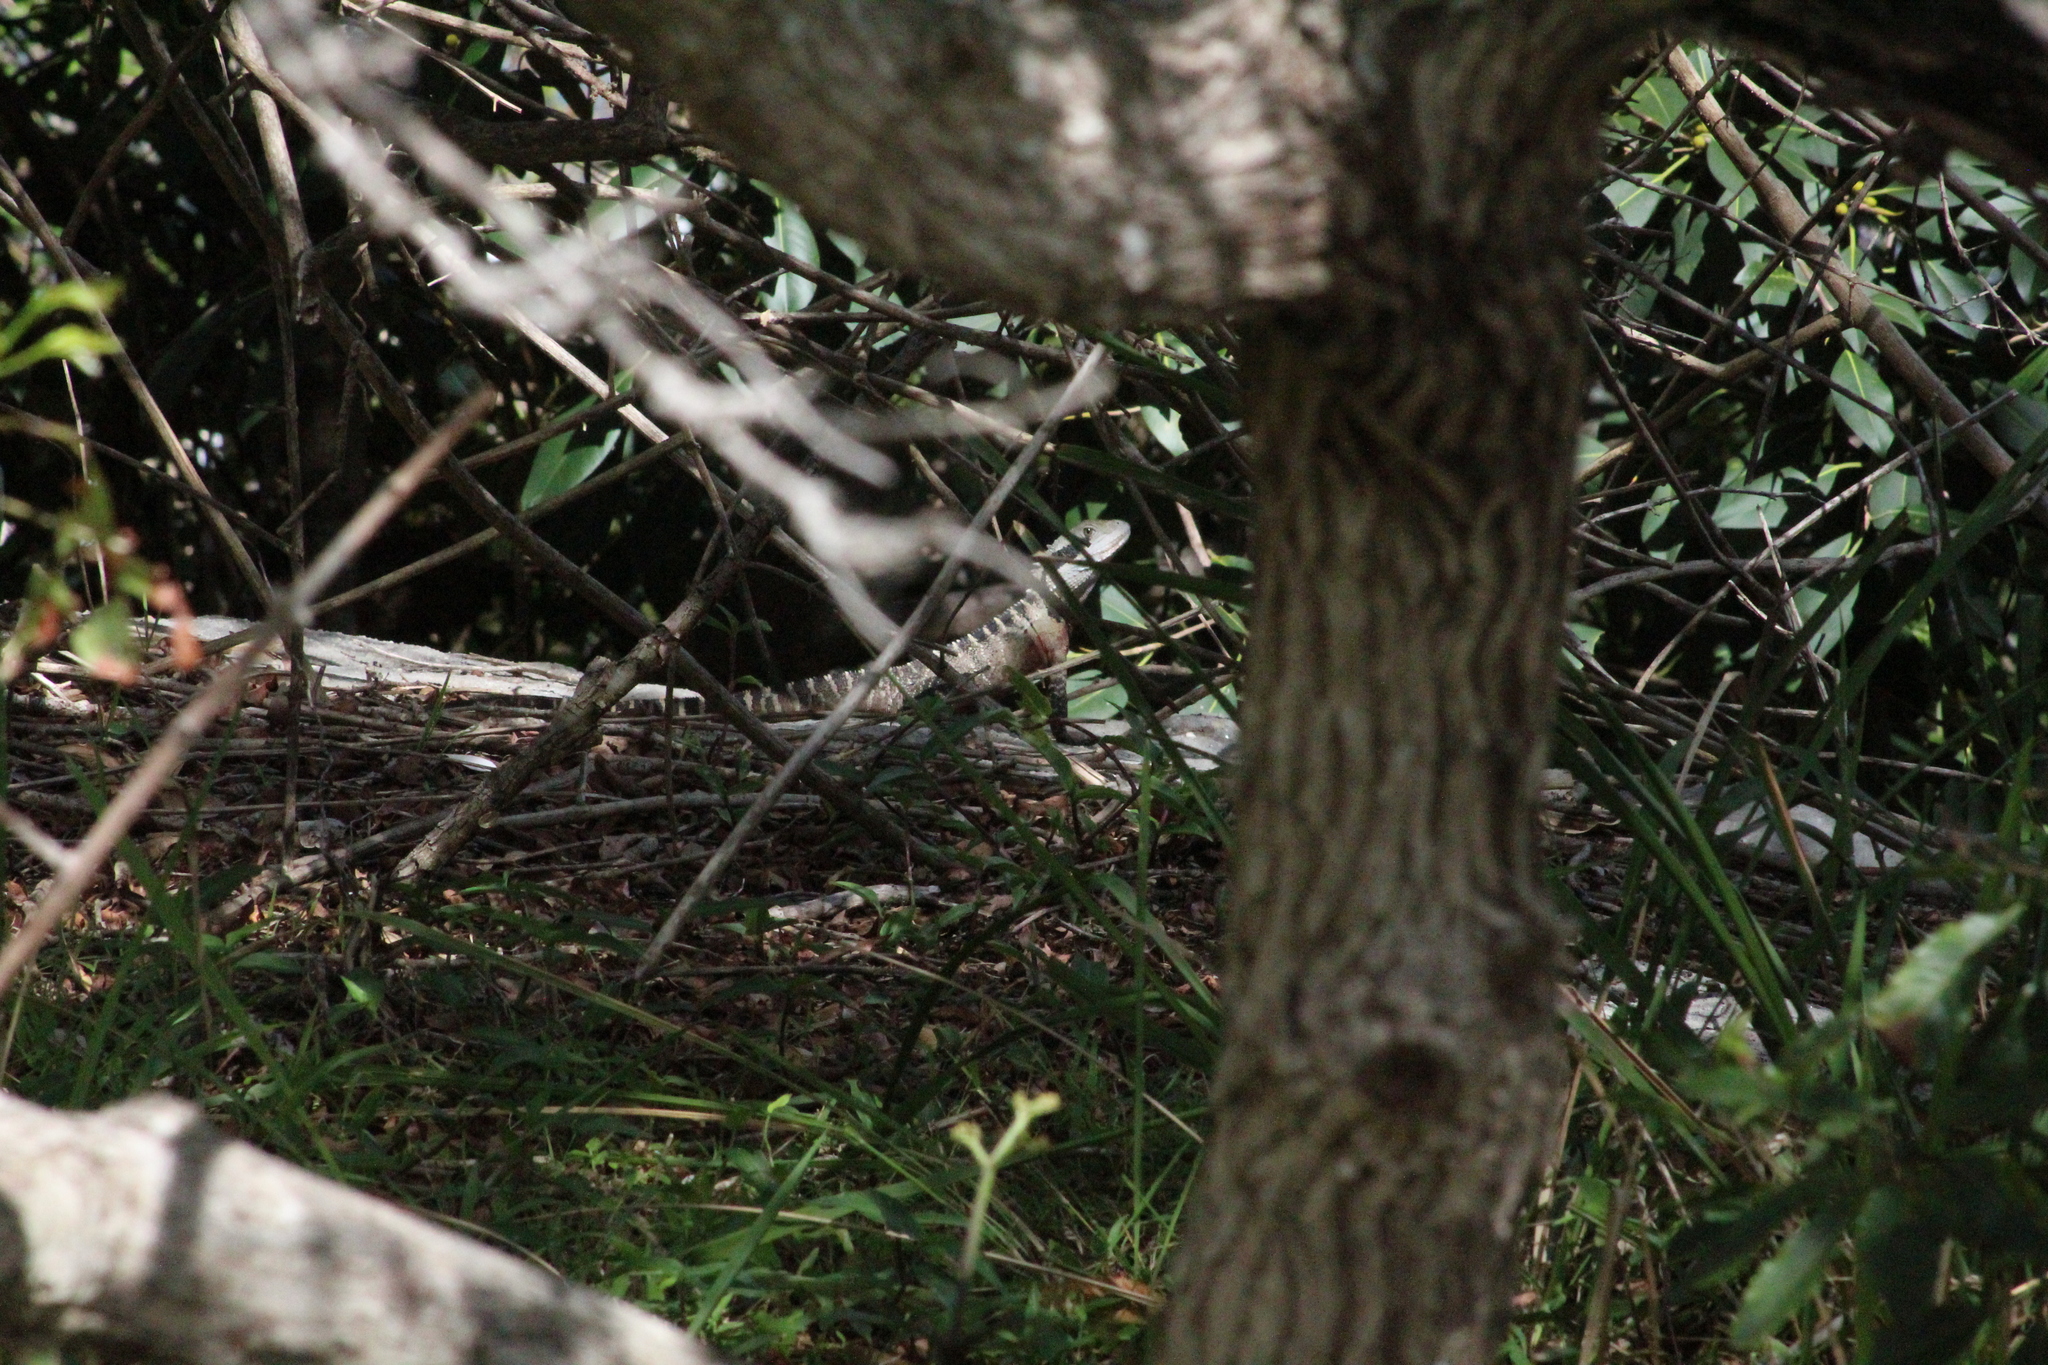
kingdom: Animalia
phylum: Chordata
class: Squamata
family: Agamidae
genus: Intellagama
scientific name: Intellagama lesueurii
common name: Eastern water dragon
